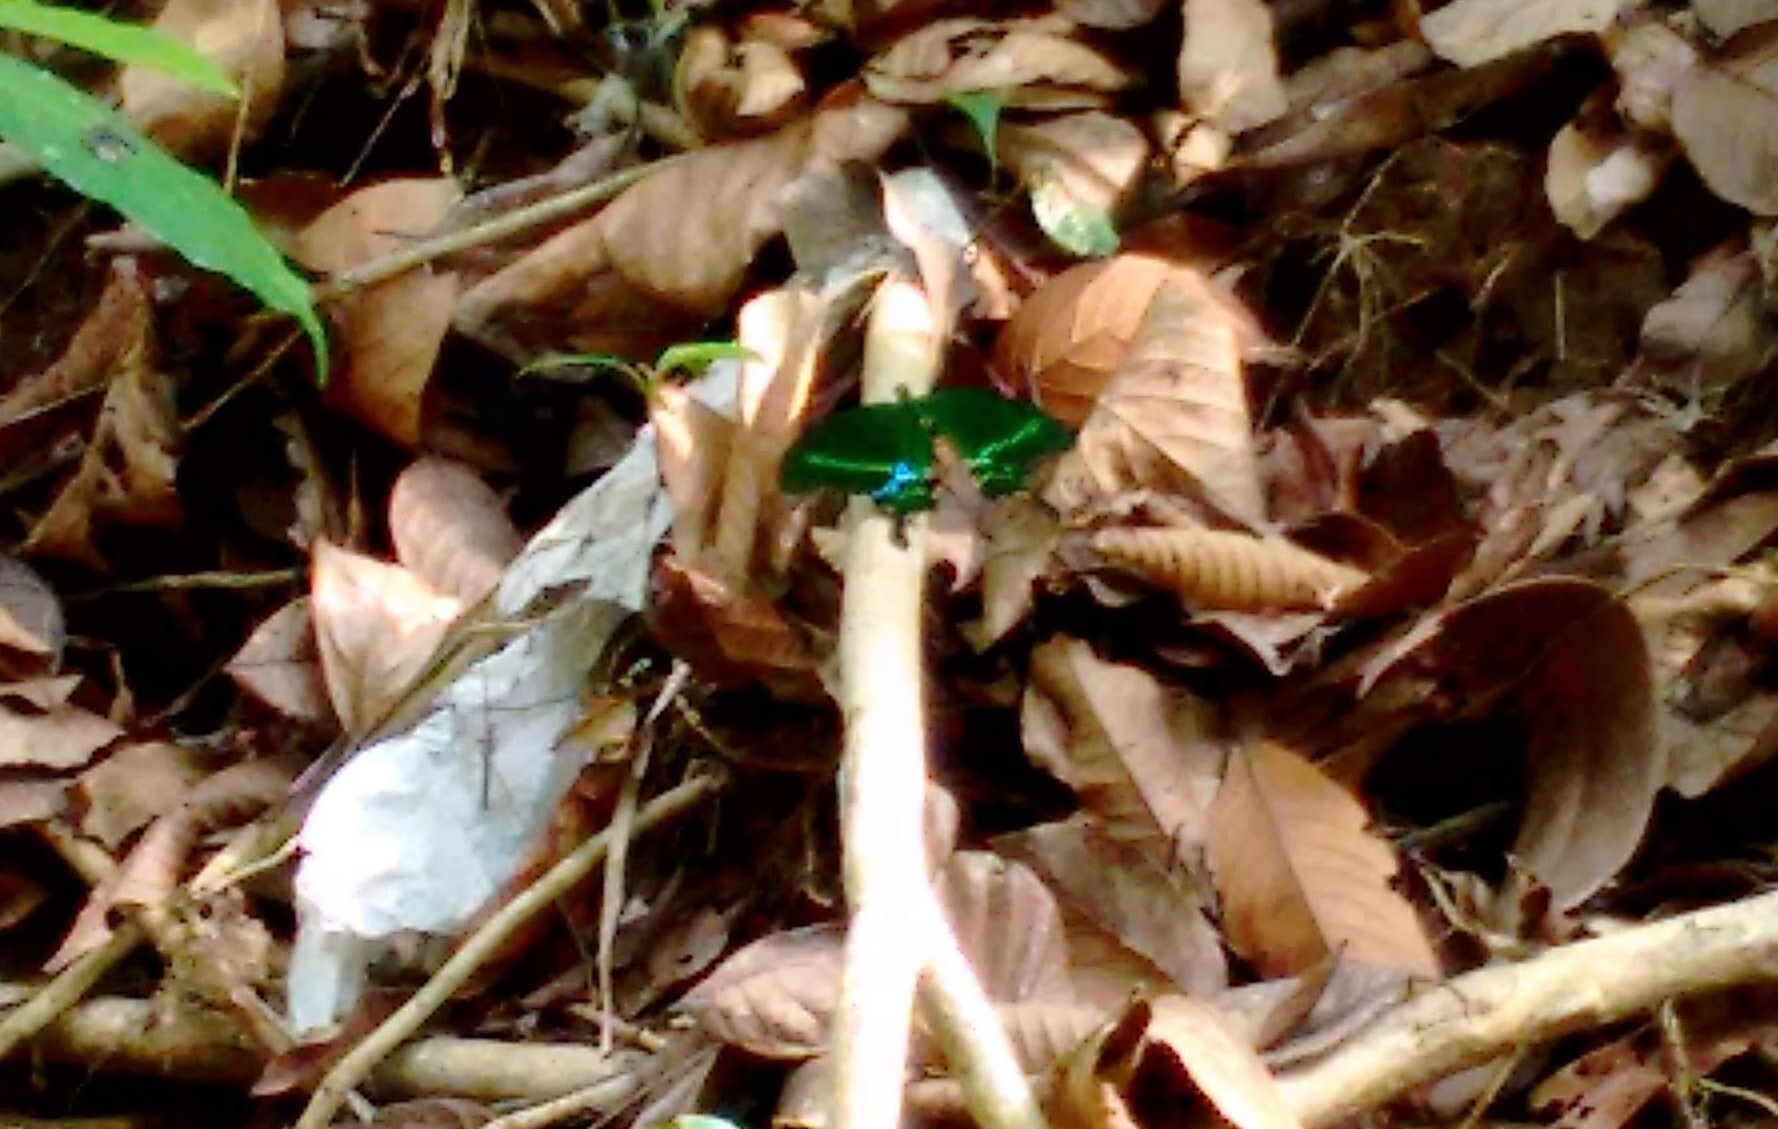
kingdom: Animalia
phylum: Arthropoda
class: Insecta
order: Lepidoptera
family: Papilionidae
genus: Papilio
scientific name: Papilio paris
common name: Paris peacock
